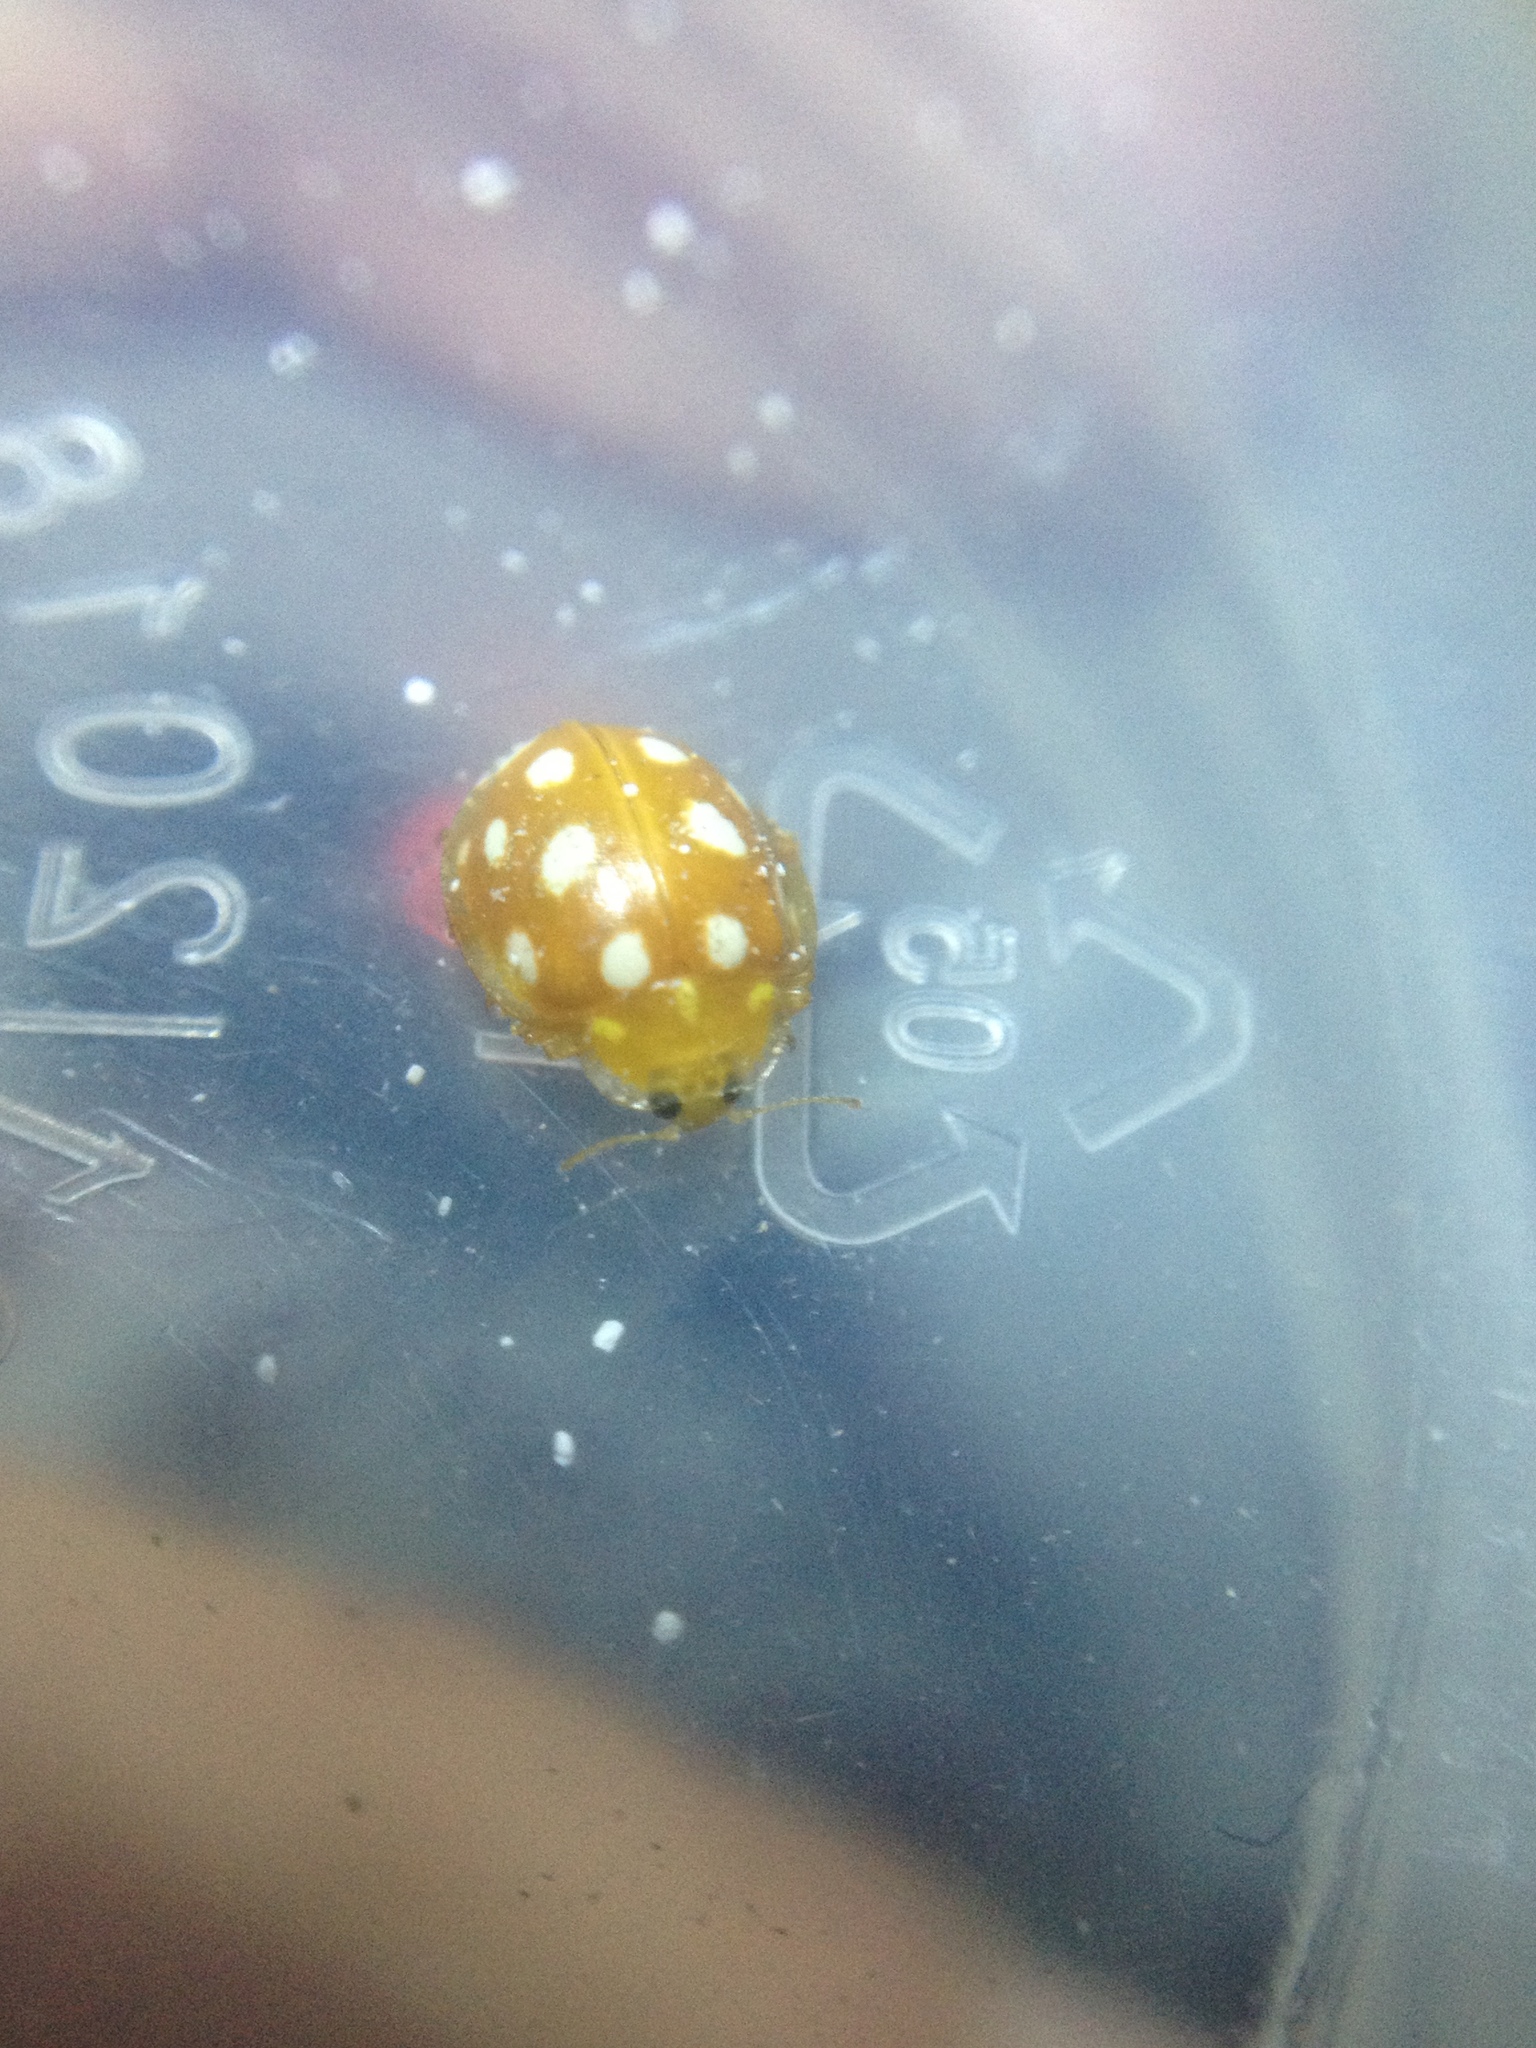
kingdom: Animalia
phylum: Arthropoda
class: Insecta
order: Coleoptera
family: Coccinellidae
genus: Halyzia
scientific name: Halyzia sedecimguttata
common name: Orange ladybird
